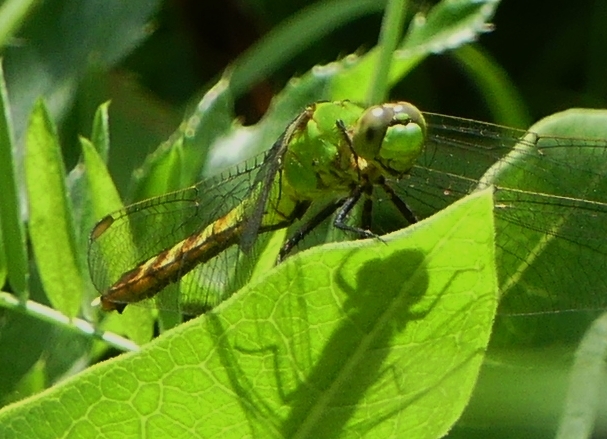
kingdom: Animalia
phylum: Arthropoda
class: Insecta
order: Odonata
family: Libellulidae
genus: Erythemis
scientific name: Erythemis simplicicollis
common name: Eastern pondhawk
